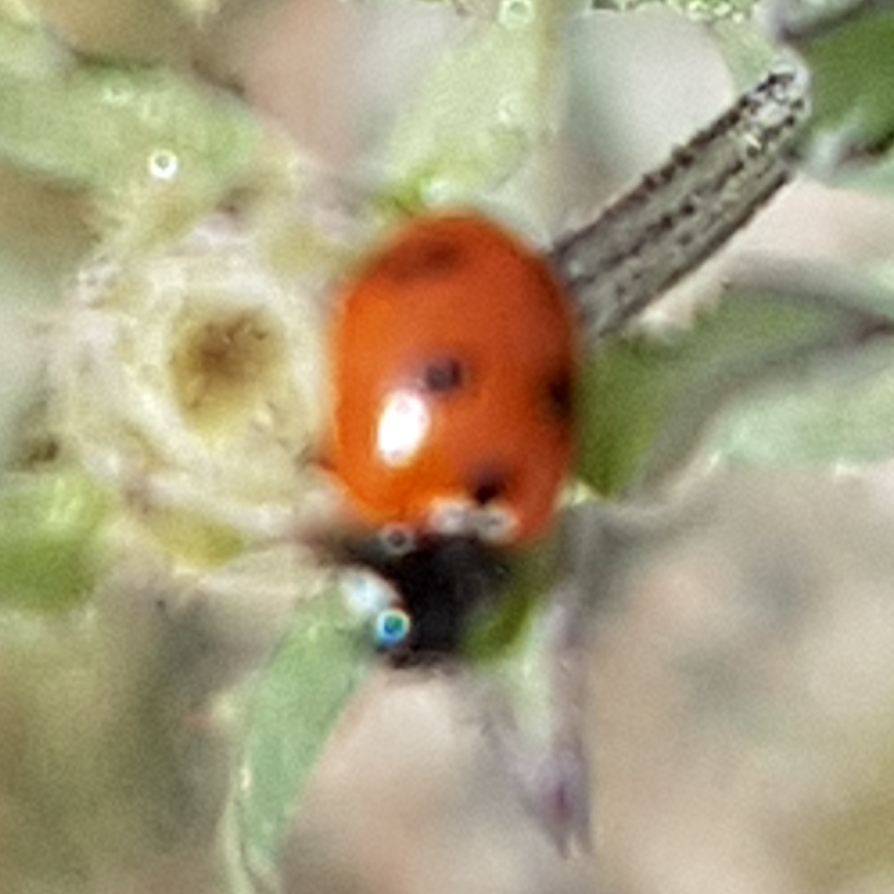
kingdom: Animalia
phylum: Arthropoda
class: Insecta
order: Coleoptera
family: Coccinellidae
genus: Coccinella
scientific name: Coccinella undecimpunctata
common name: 11-spot ladybird
